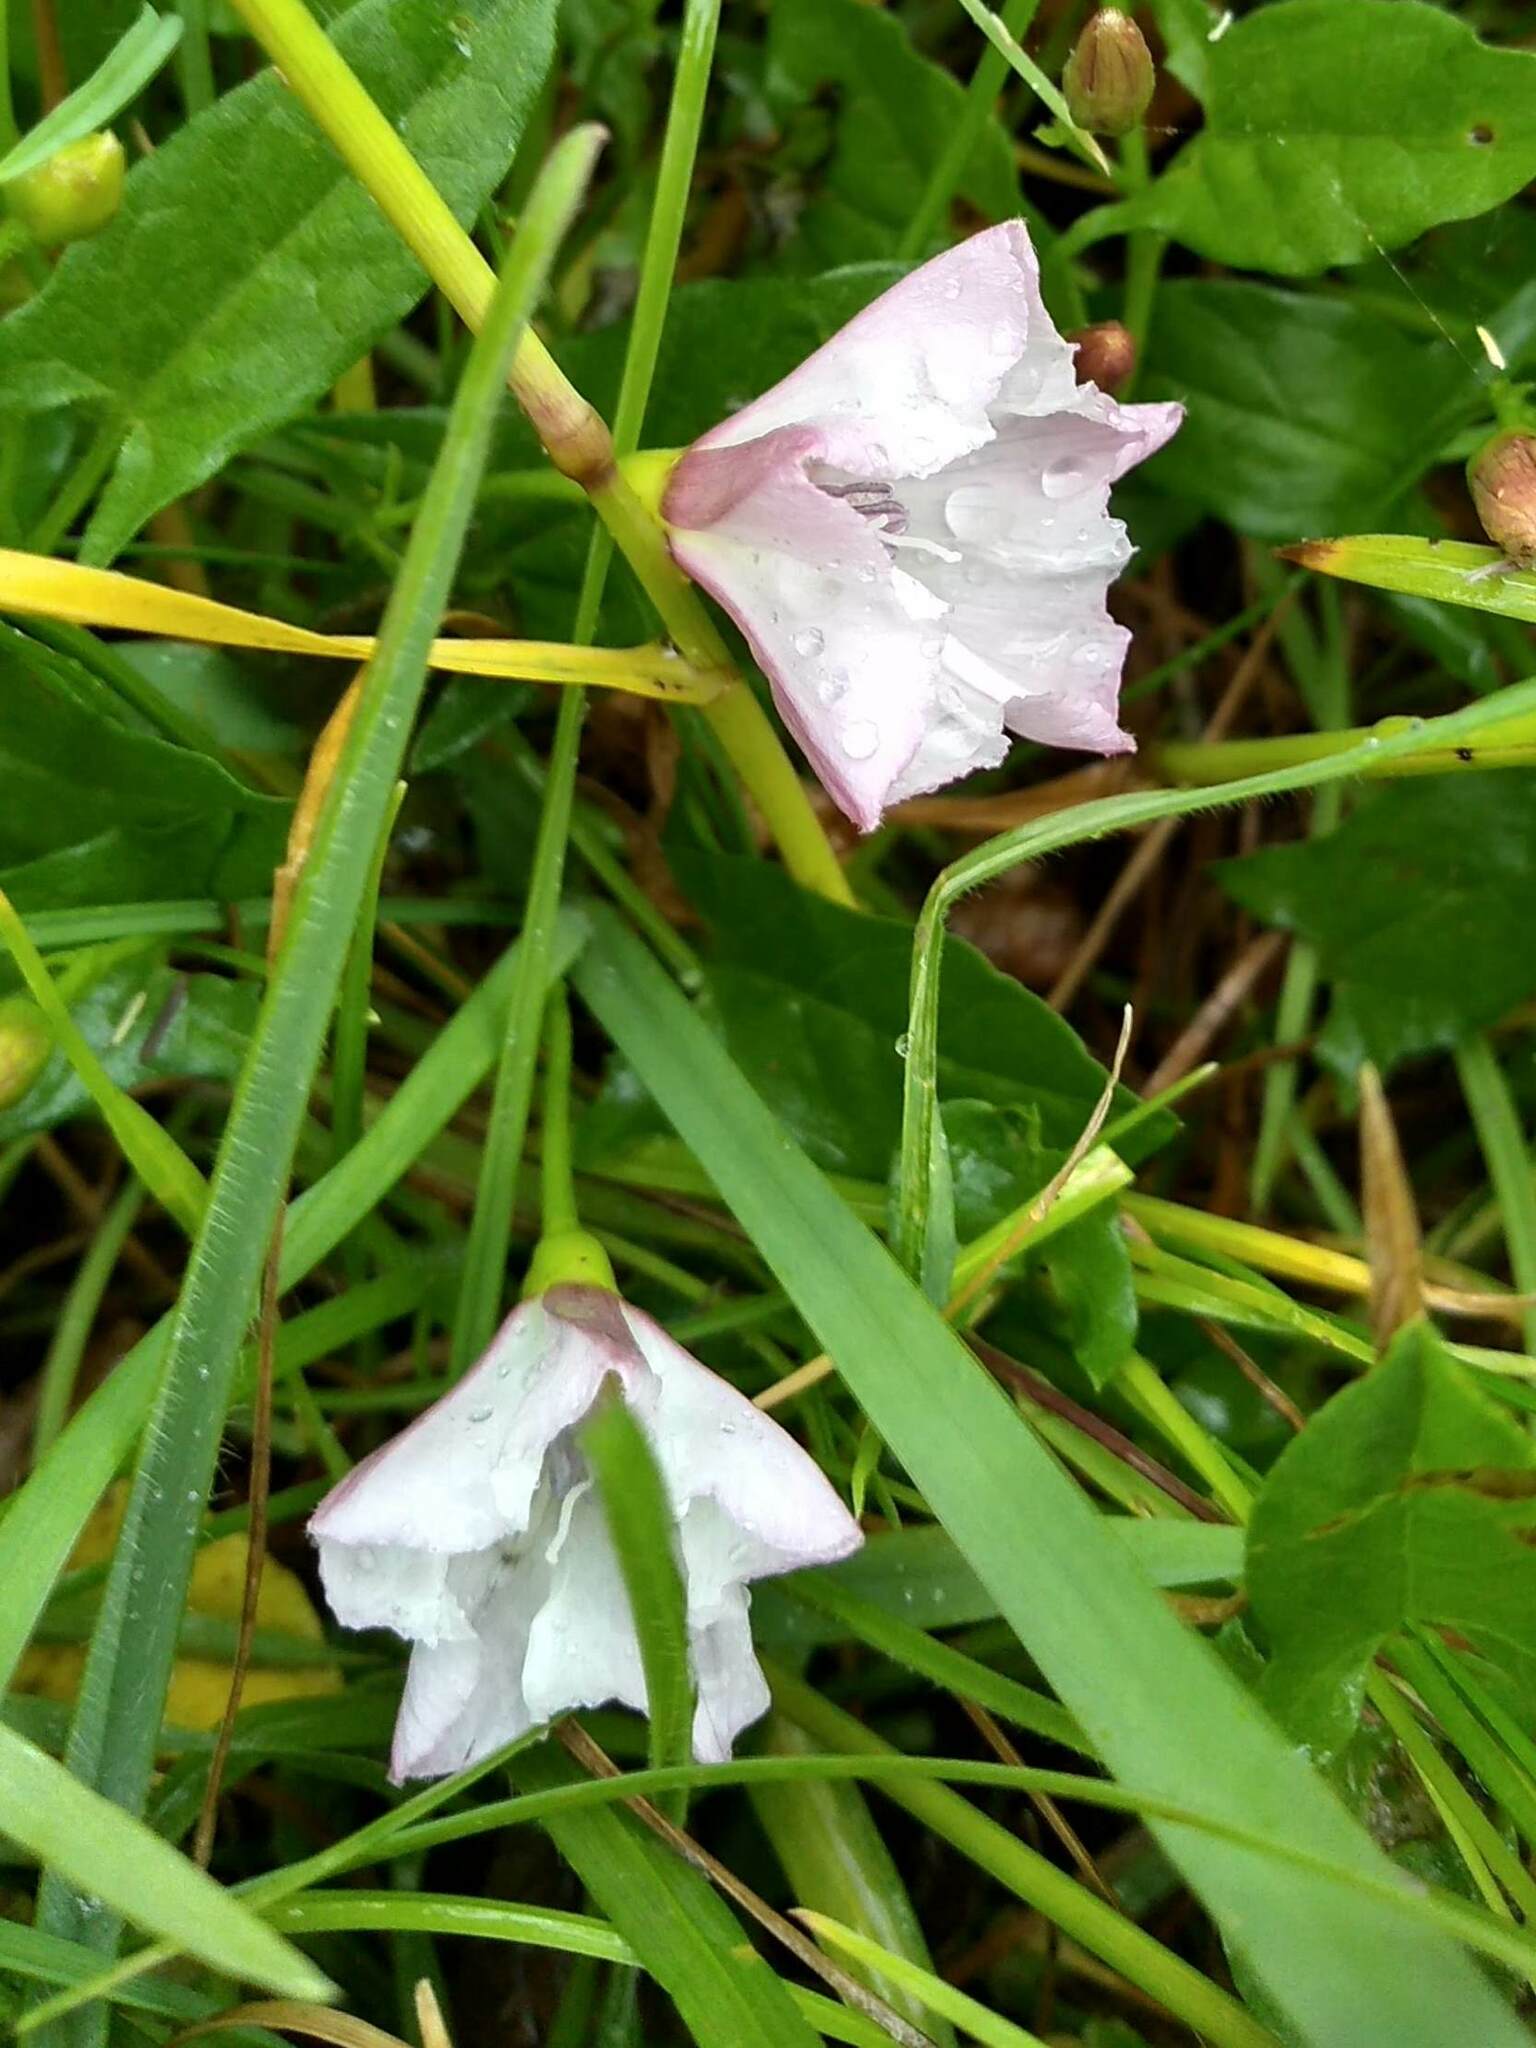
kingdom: Plantae
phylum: Tracheophyta
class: Magnoliopsida
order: Solanales
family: Convolvulaceae
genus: Convolvulus
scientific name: Convolvulus arvensis
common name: Field bindweed
